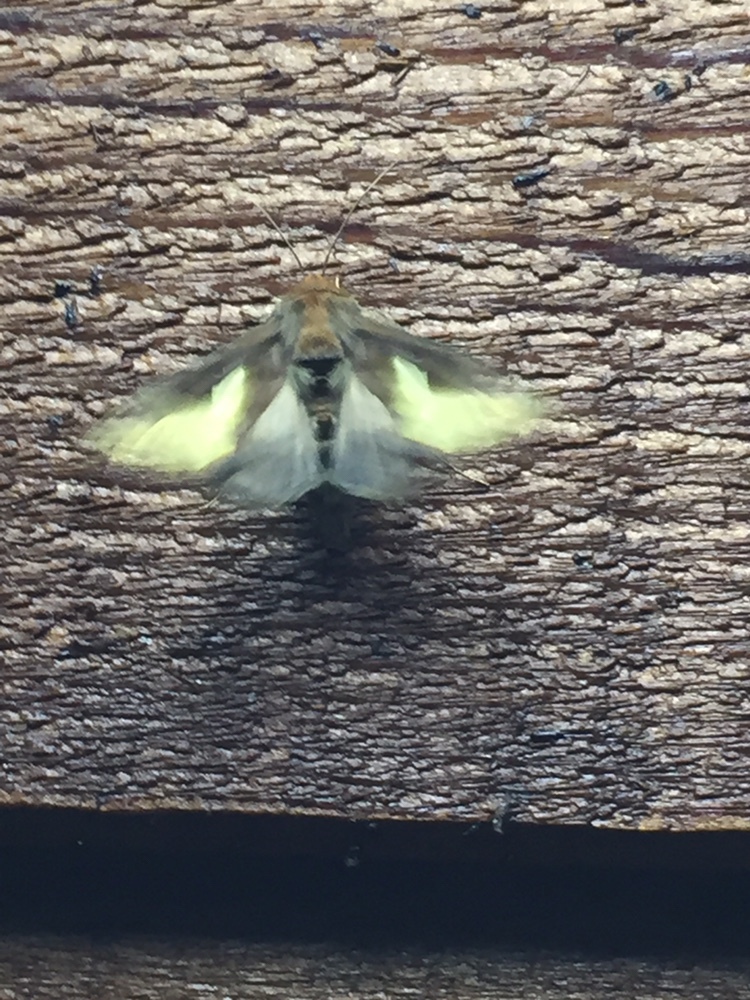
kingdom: Animalia
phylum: Arthropoda
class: Insecta
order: Lepidoptera
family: Noctuidae
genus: Thysanoplusia
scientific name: Thysanoplusia orichalcea
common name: Slender burnished brass, golden plusia
